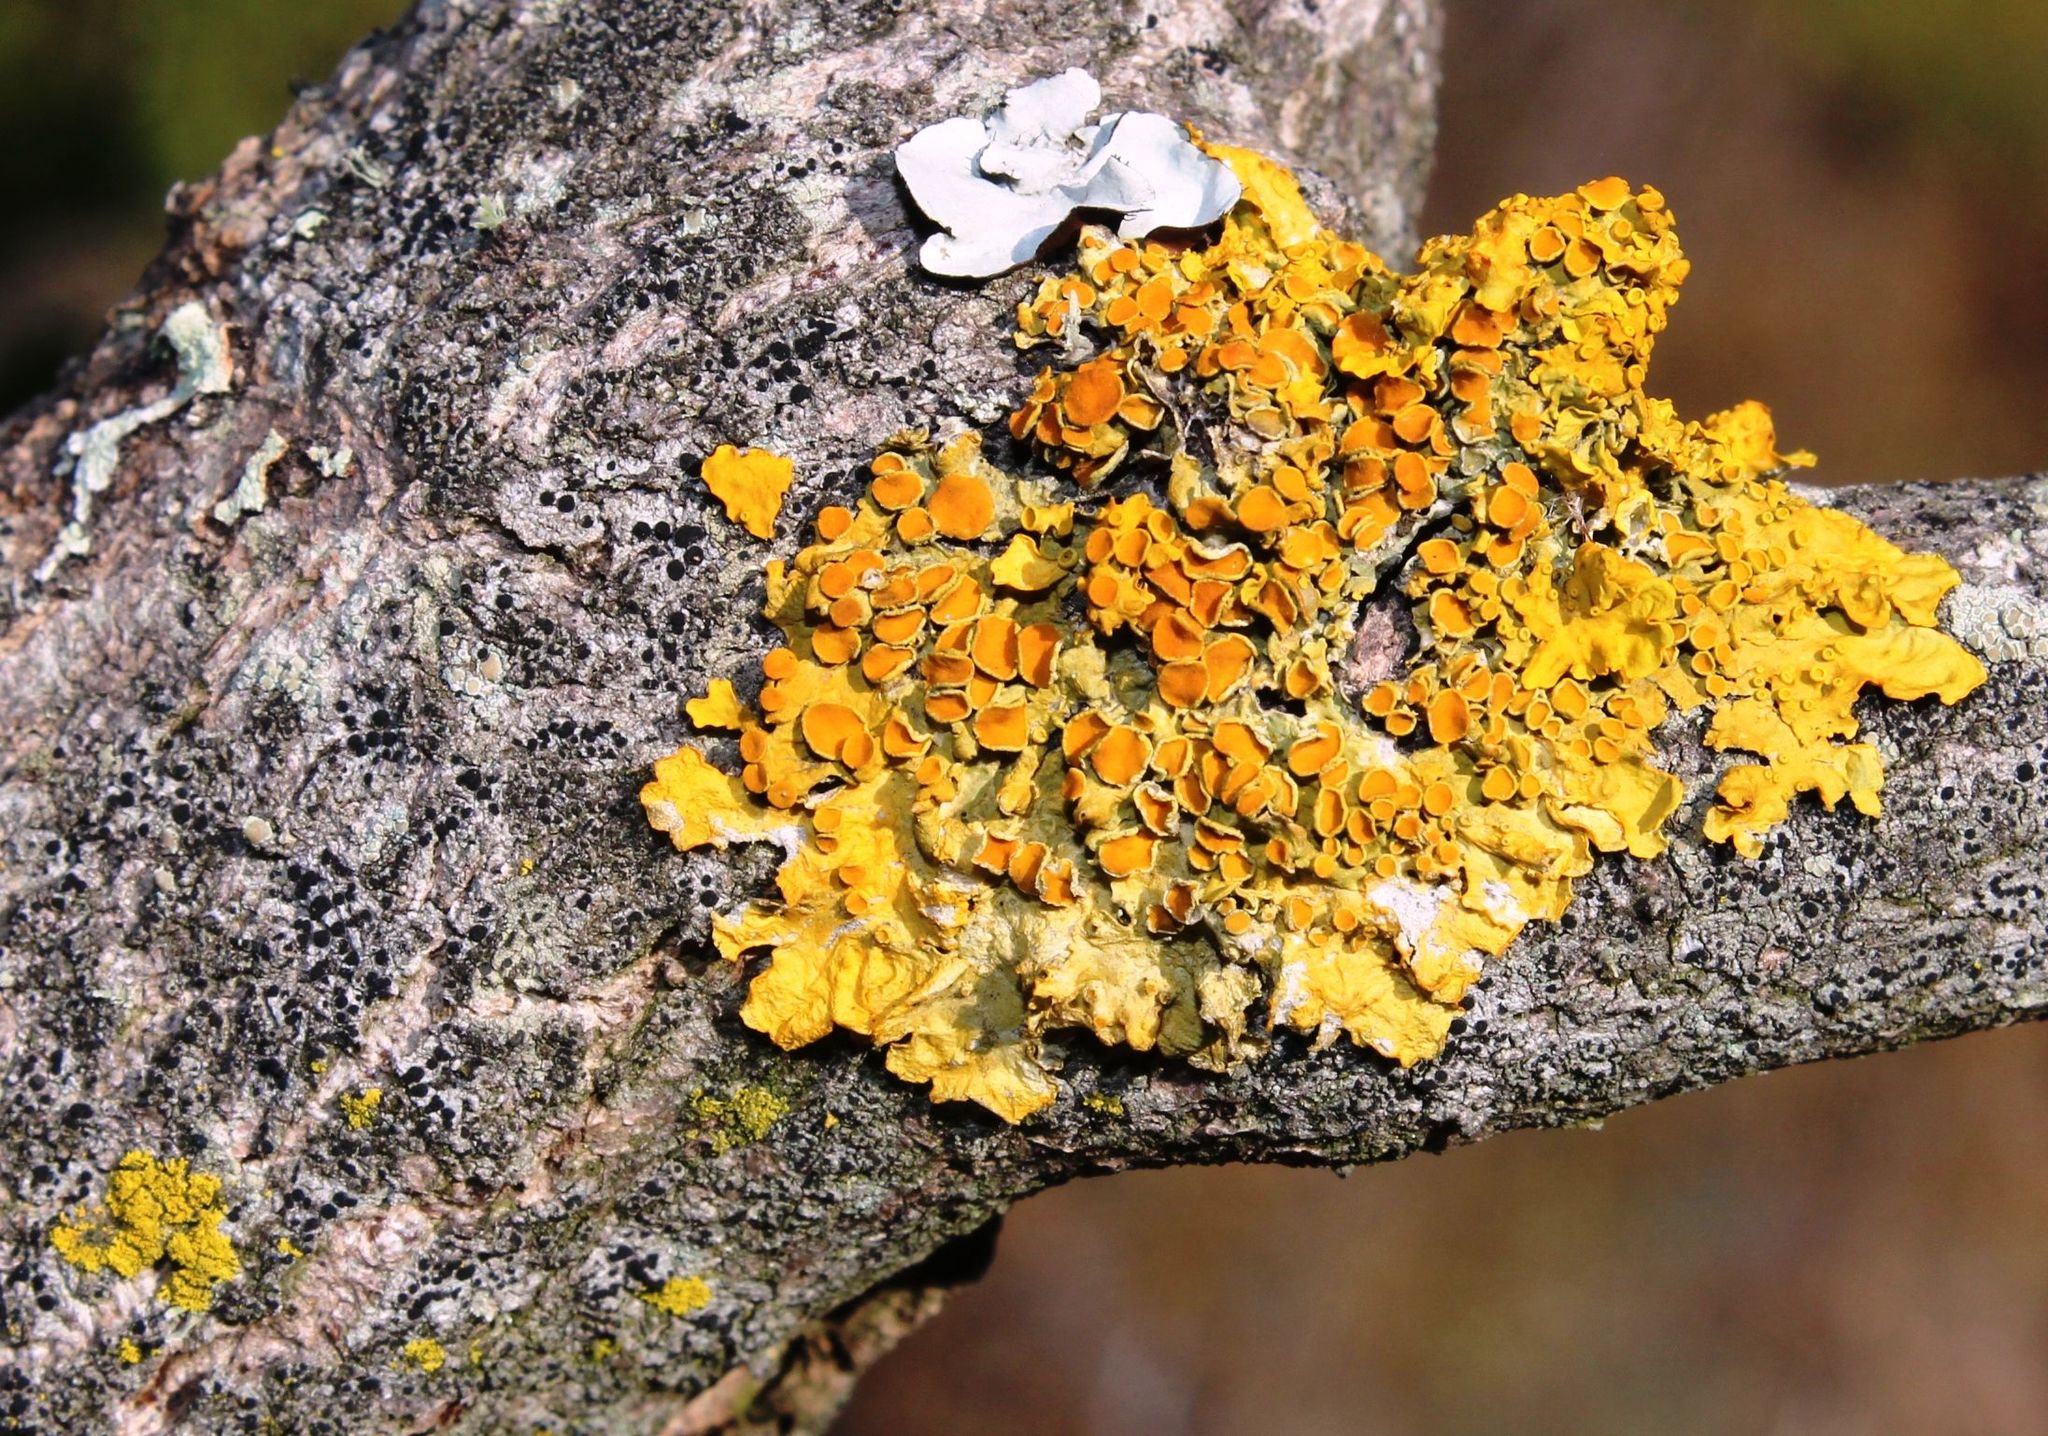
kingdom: Fungi
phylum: Ascomycota
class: Lecanoromycetes
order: Teloschistales
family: Teloschistaceae
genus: Xanthoria
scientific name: Xanthoria parietina
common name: Common orange lichen
